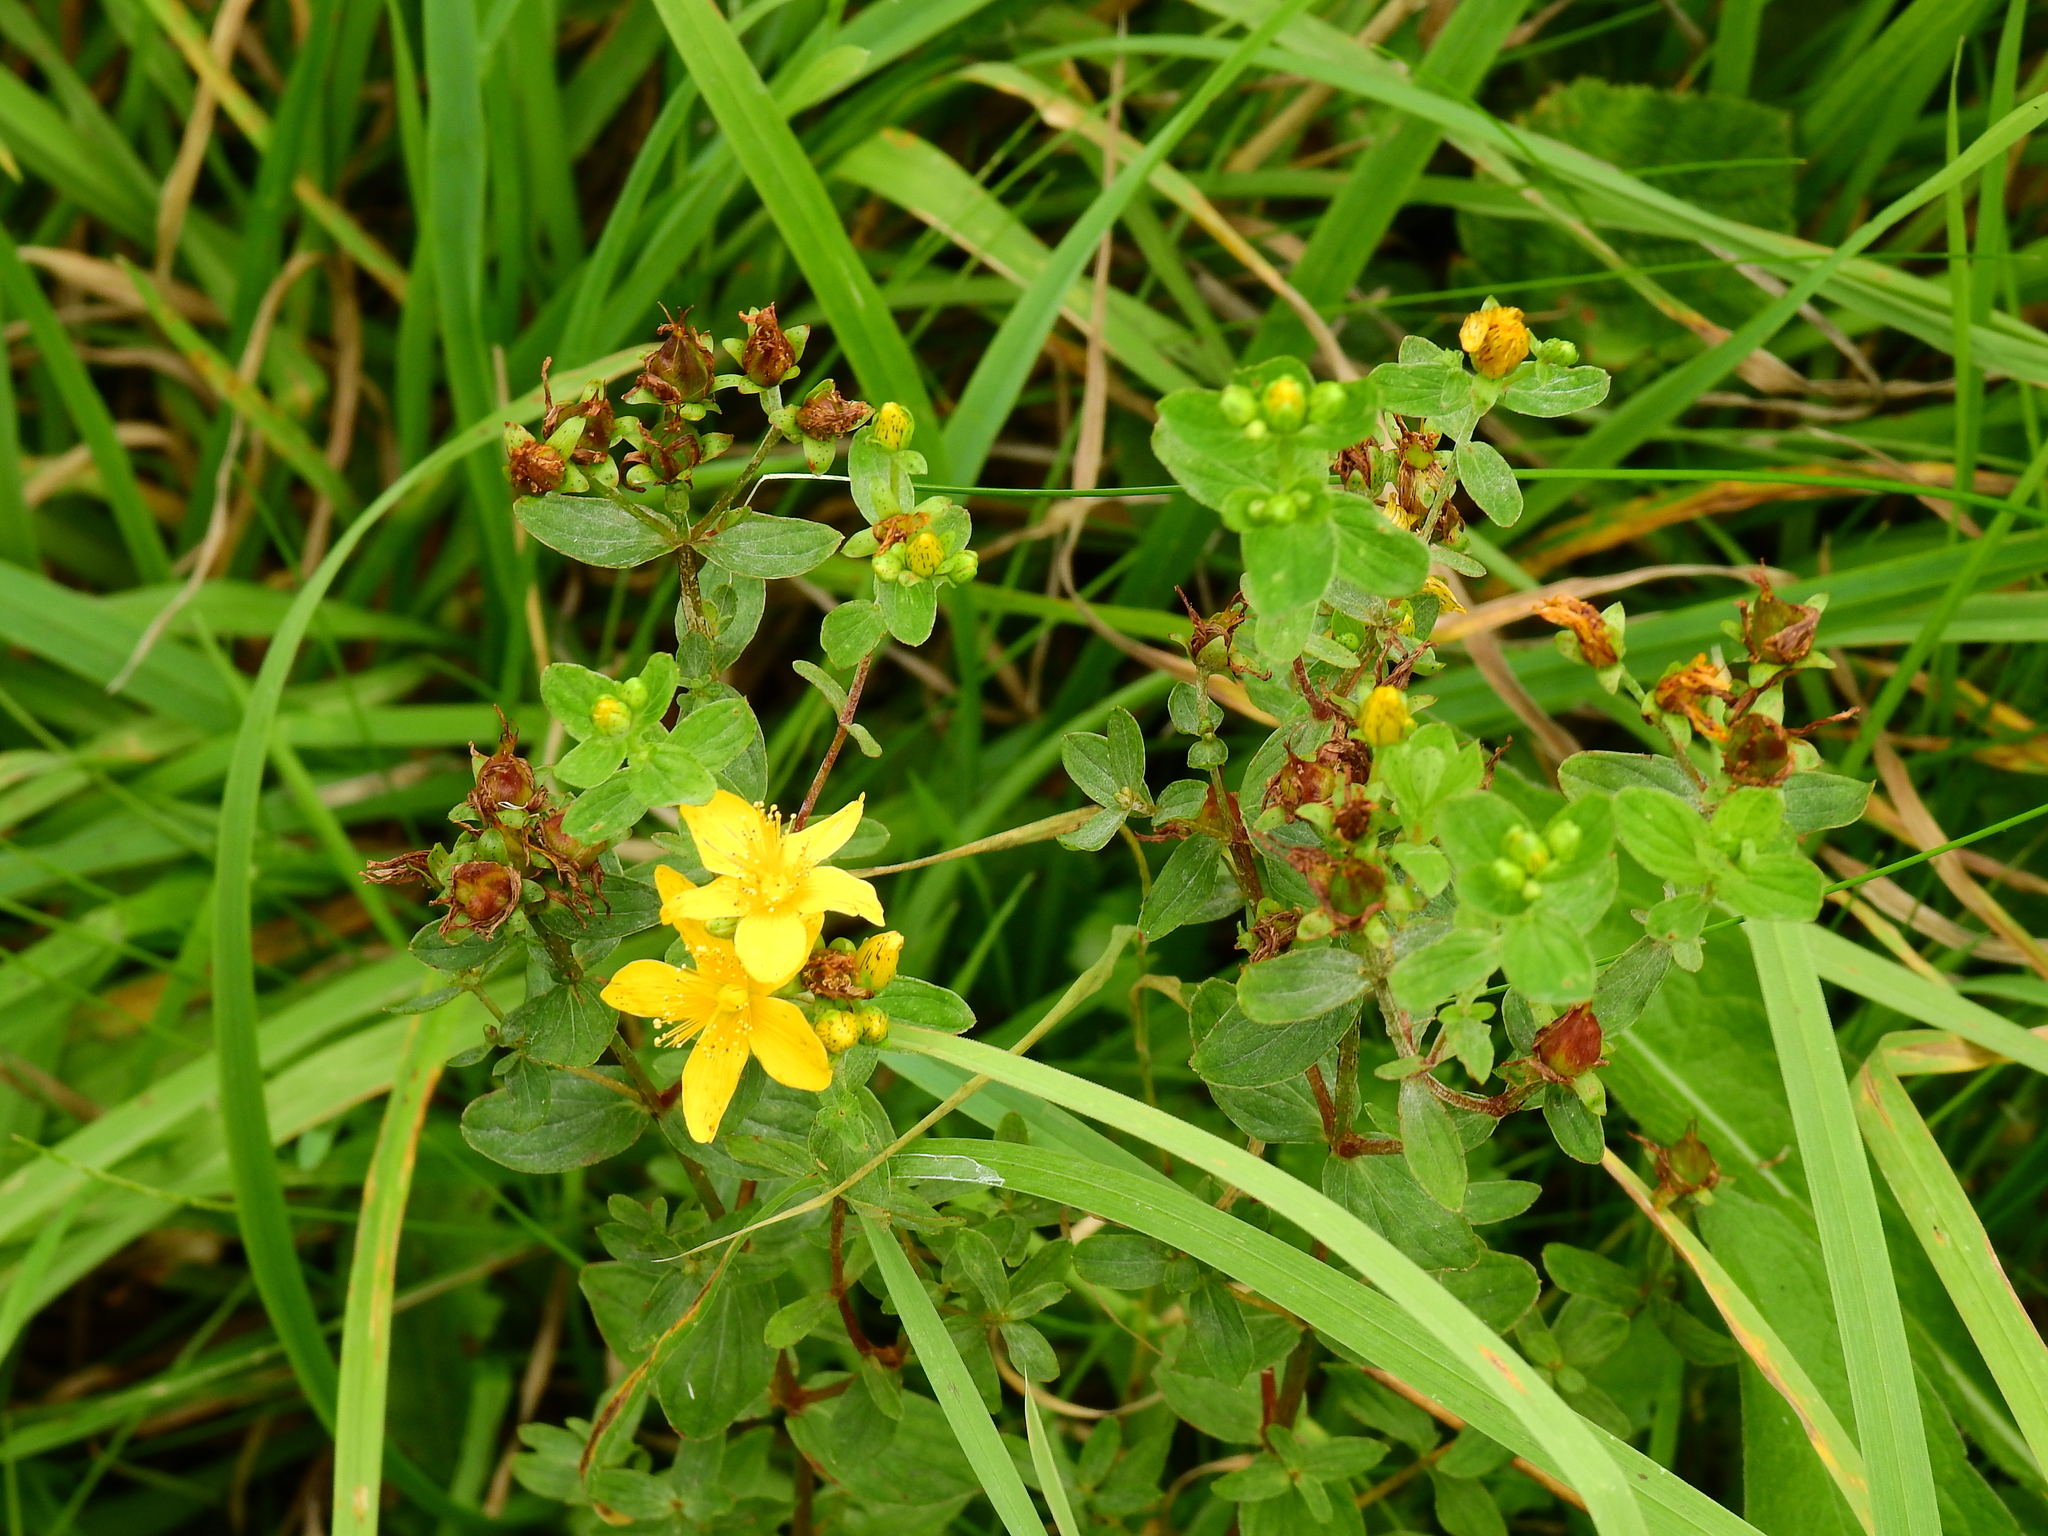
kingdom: Plantae
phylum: Tracheophyta
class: Magnoliopsida
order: Malpighiales
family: Hypericaceae
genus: Hypericum
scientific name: Hypericum maculatum
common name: Imperforate st. john's-wort
